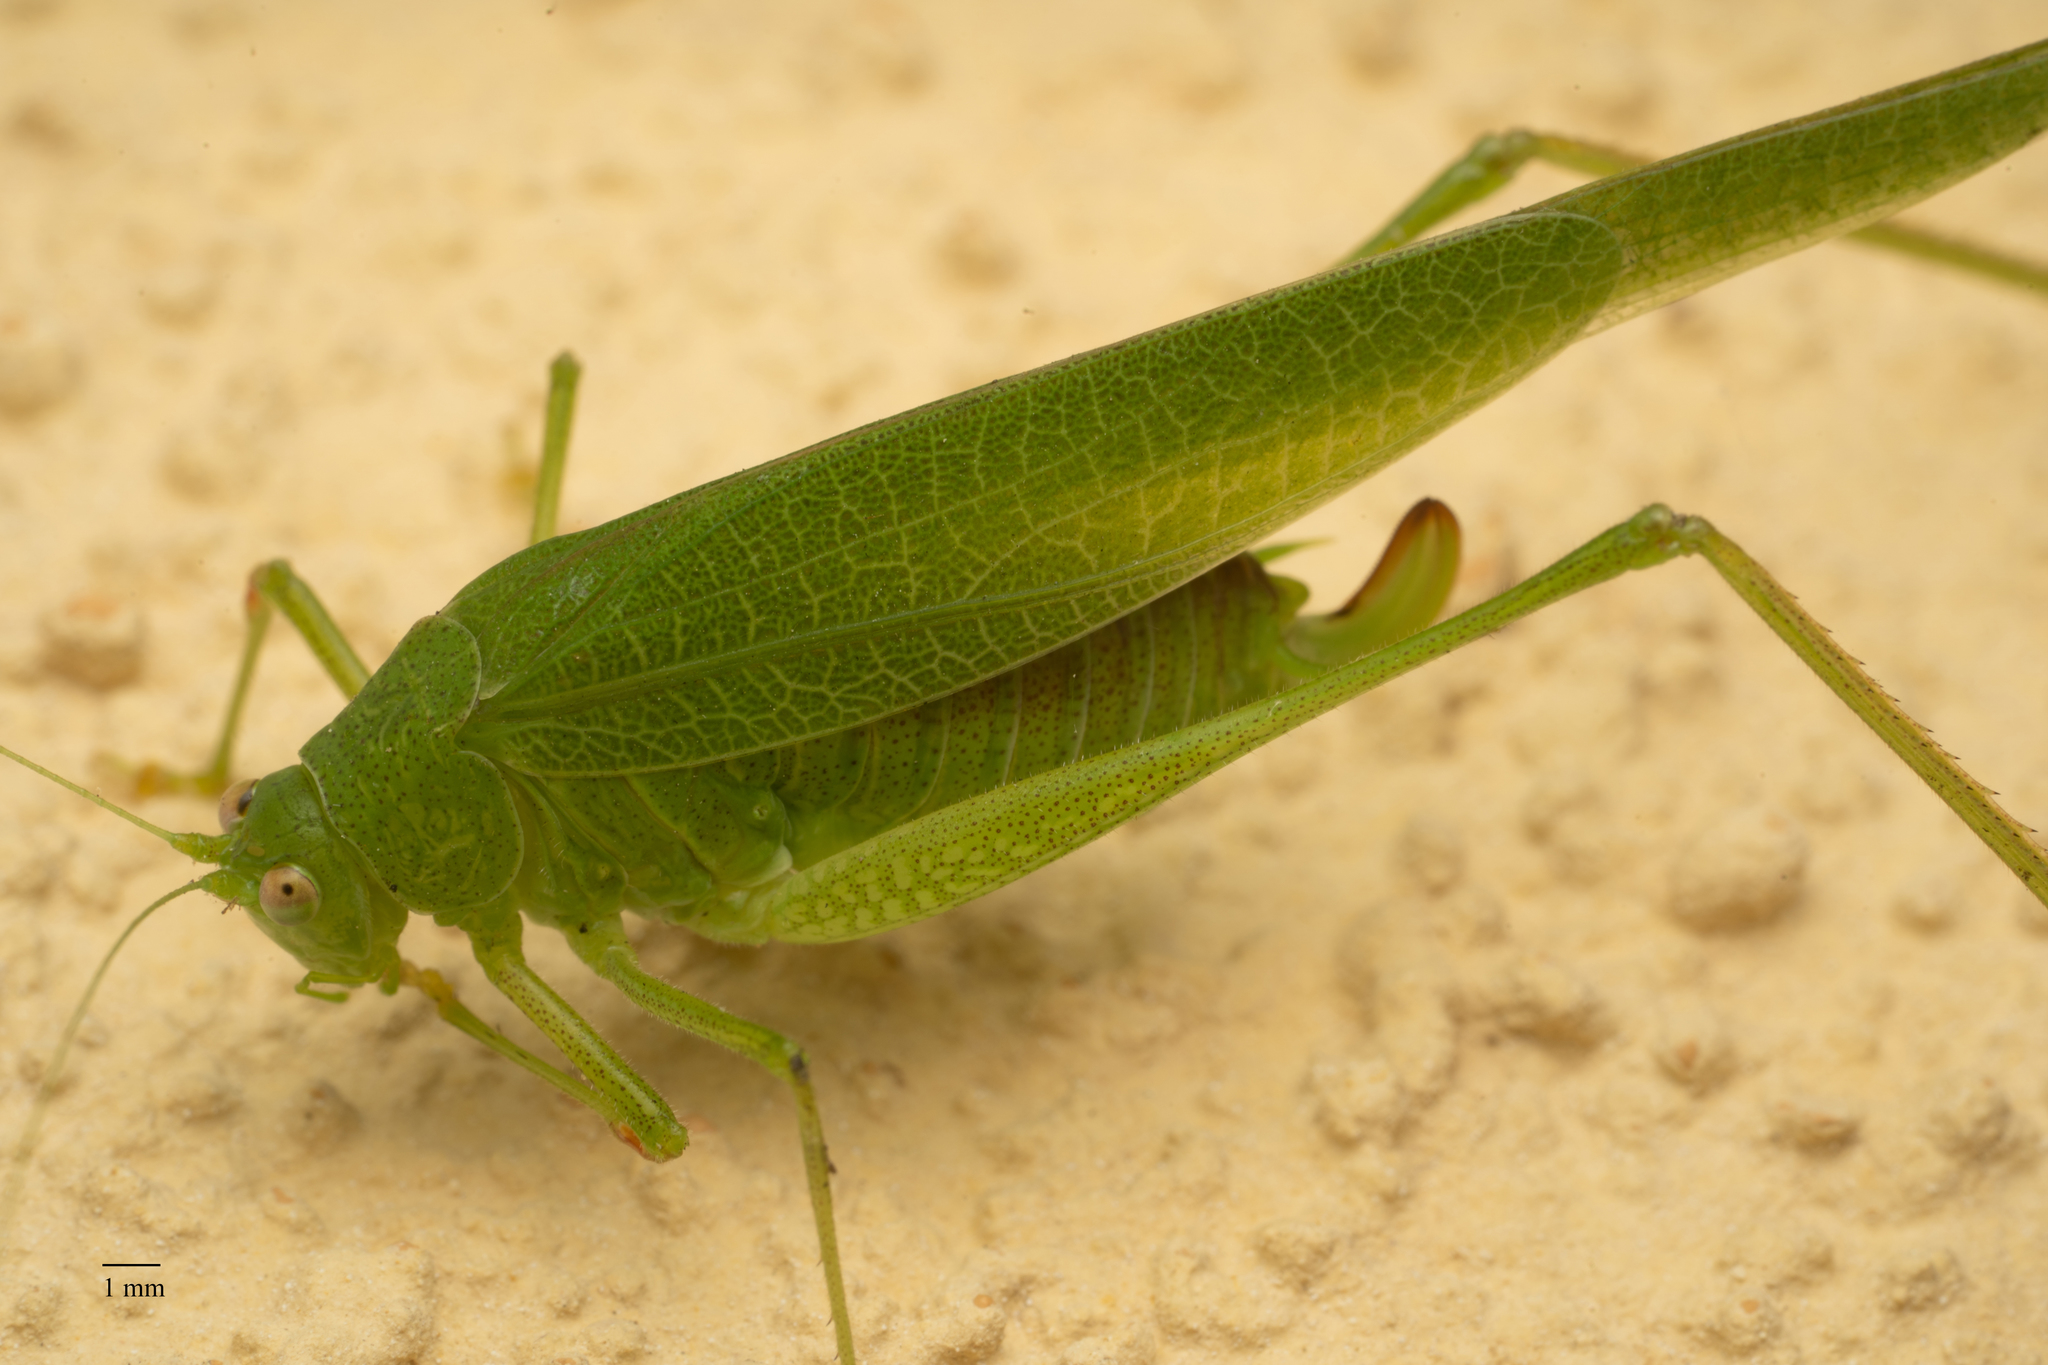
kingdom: Animalia
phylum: Arthropoda
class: Insecta
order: Orthoptera
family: Tettigoniidae
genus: Phaneroptera
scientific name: Phaneroptera nana
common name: Southern sickle bush-cricket
